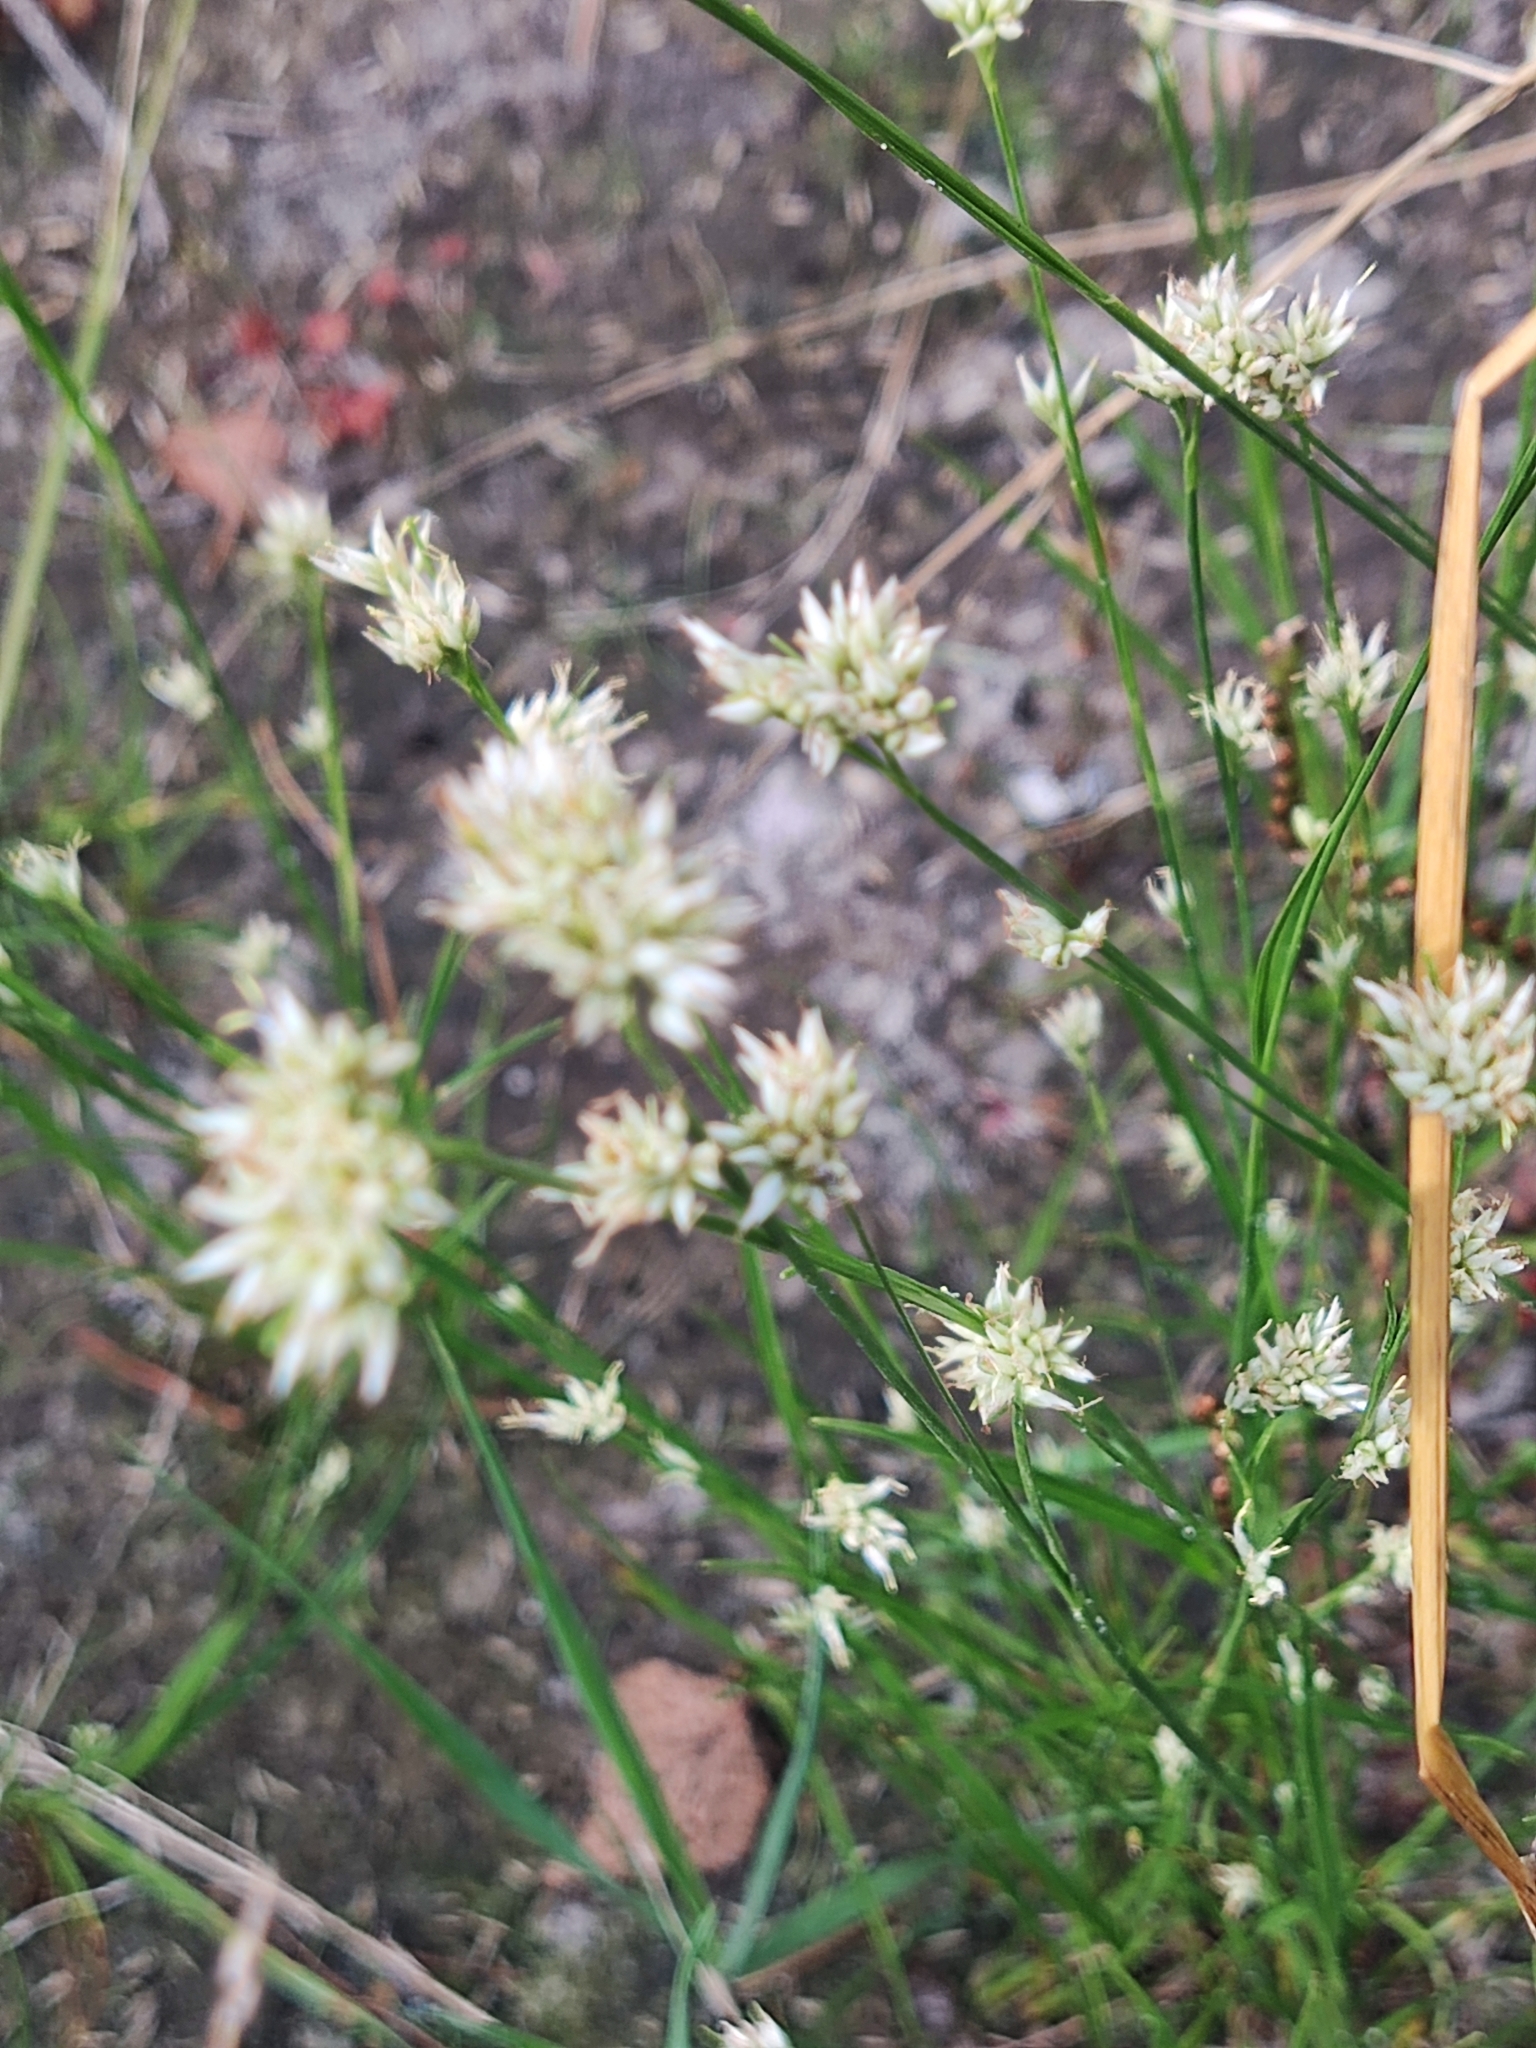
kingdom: Plantae
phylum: Tracheophyta
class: Liliopsida
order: Poales
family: Cyperaceae
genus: Rhynchospora
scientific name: Rhynchospora alba
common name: White beak-sedge
